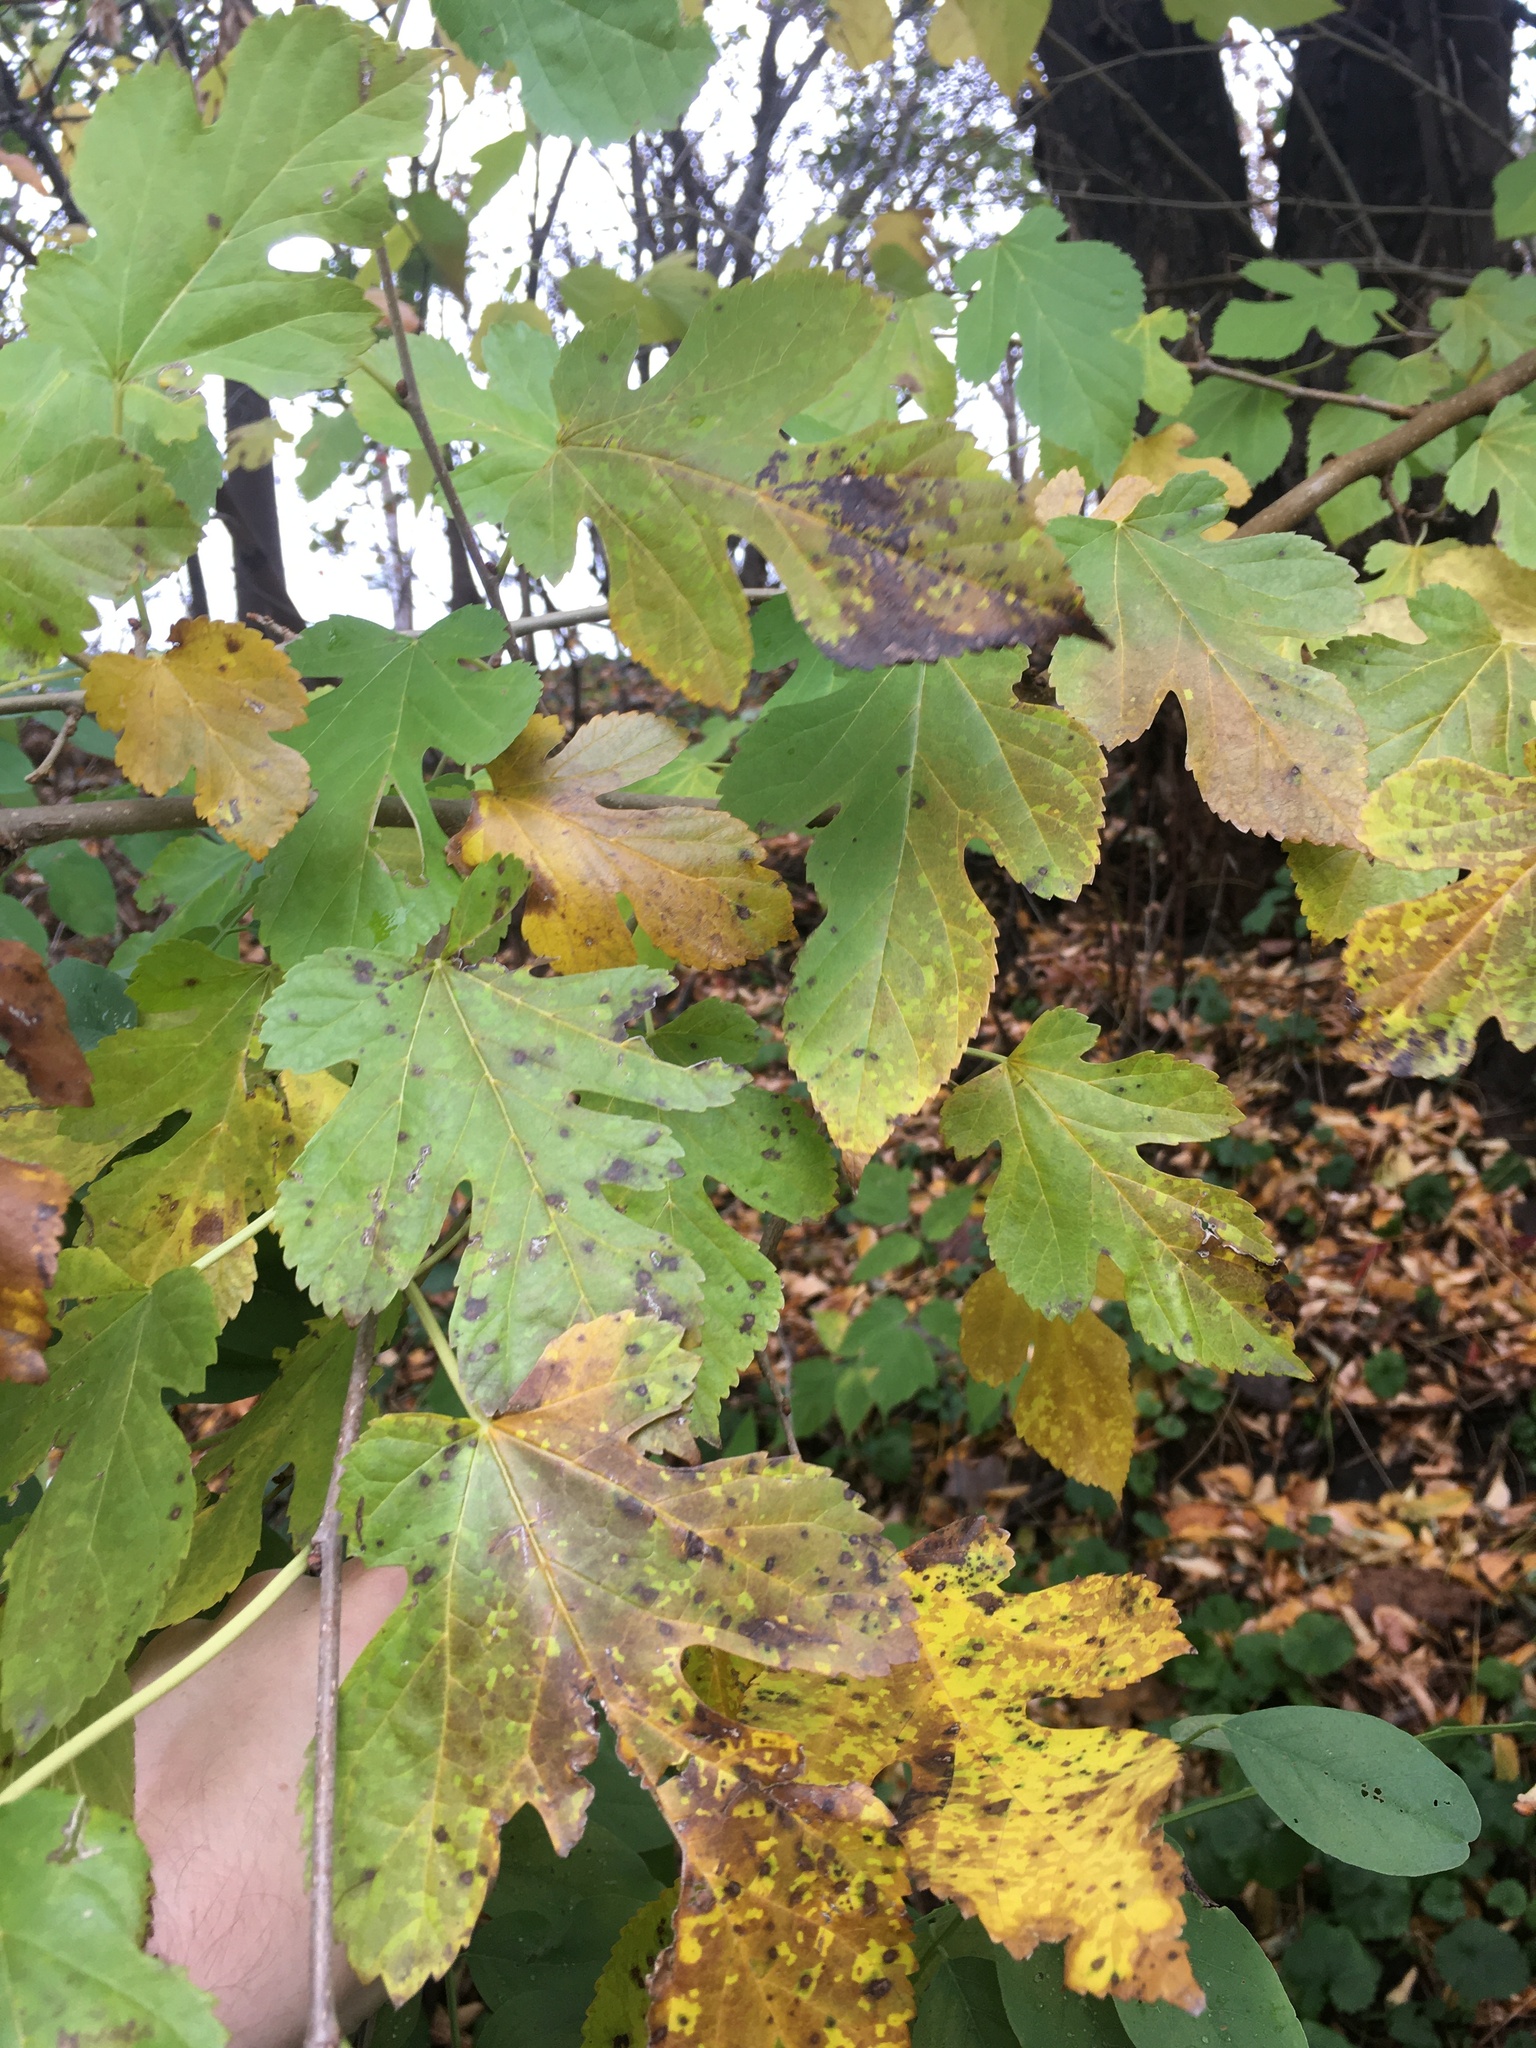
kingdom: Plantae
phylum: Tracheophyta
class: Magnoliopsida
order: Rosales
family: Moraceae
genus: Morus
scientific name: Morus alba
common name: White mulberry
